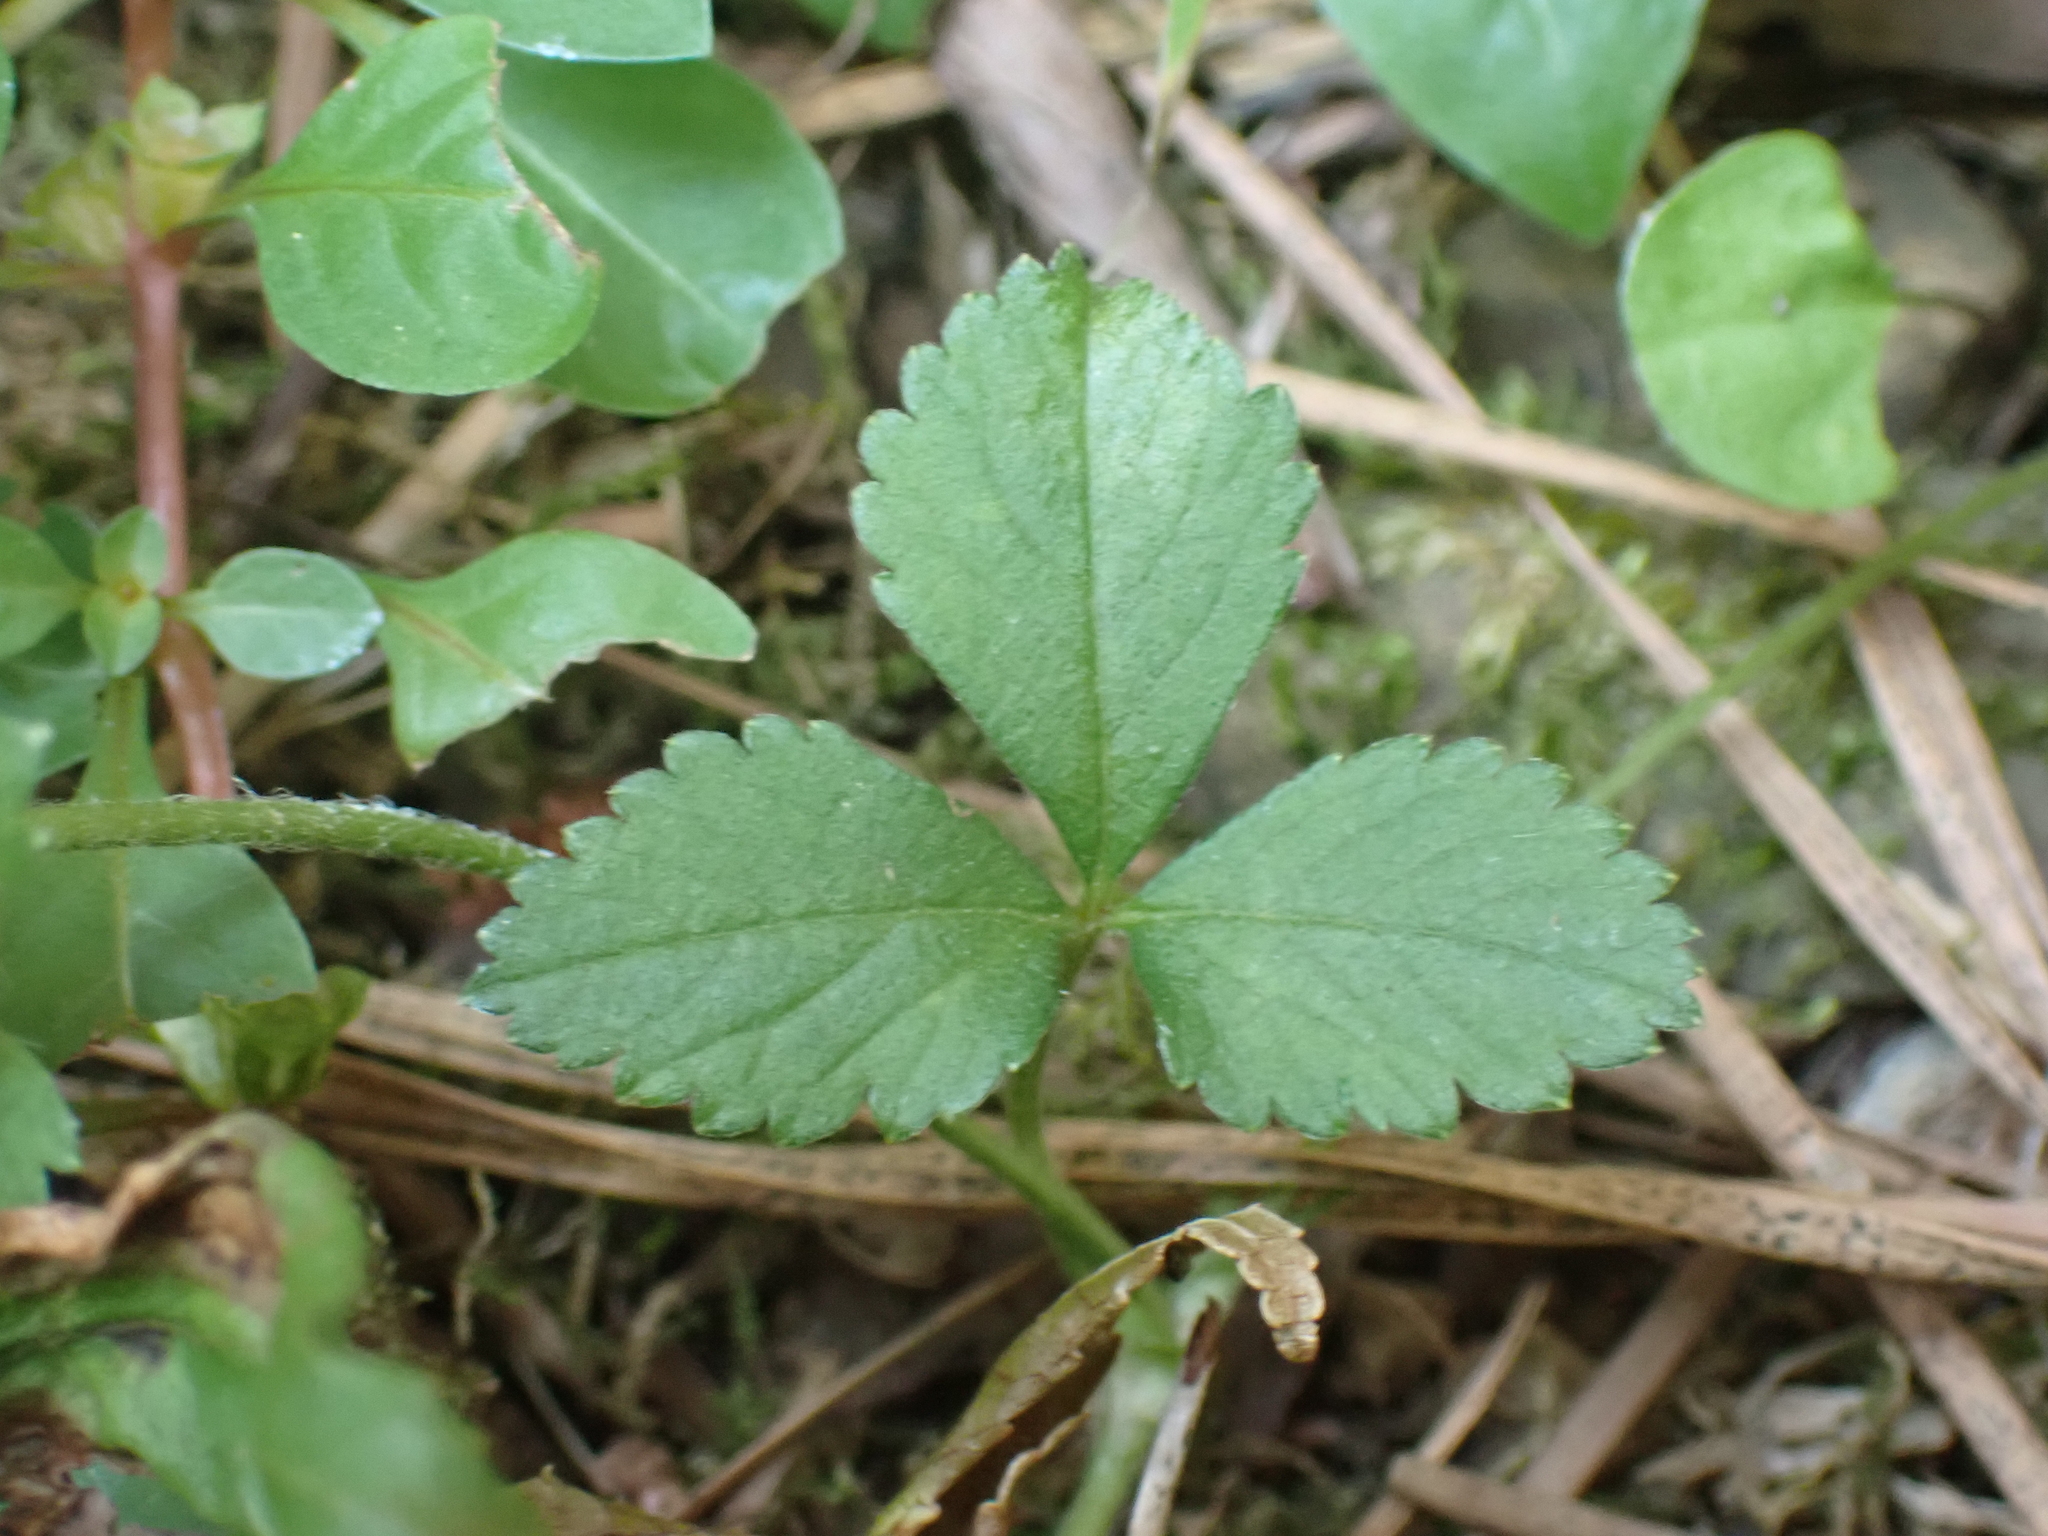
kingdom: Plantae
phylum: Tracheophyta
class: Magnoliopsida
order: Rosales
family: Rosaceae
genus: Potentilla
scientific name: Potentilla indica
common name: Yellow-flowered strawberry
